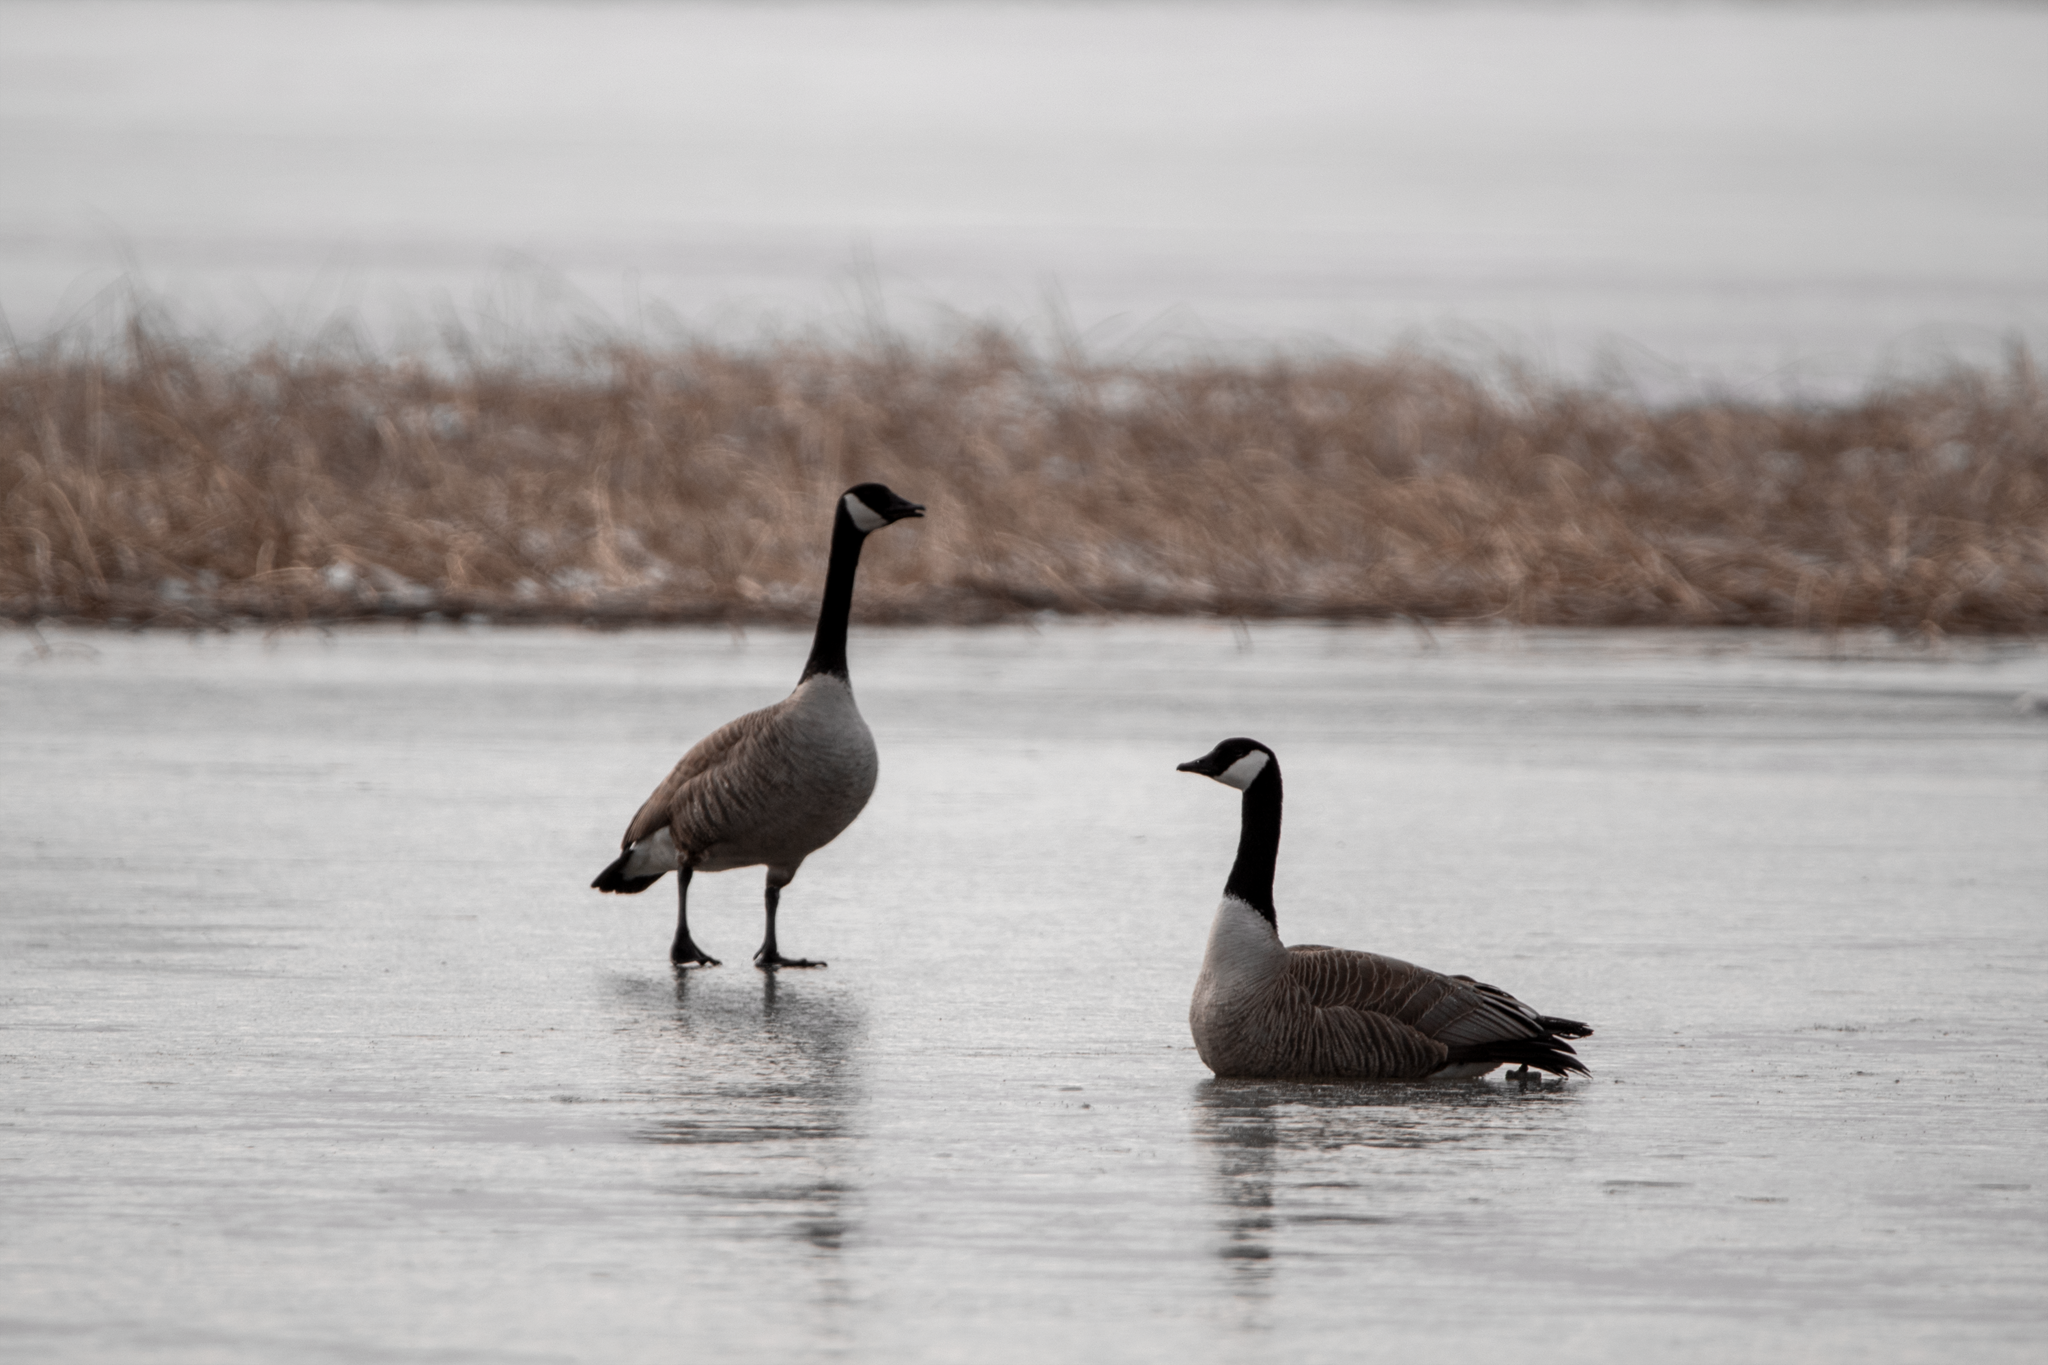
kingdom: Animalia
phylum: Chordata
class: Aves
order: Anseriformes
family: Anatidae
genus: Branta
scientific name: Branta canadensis
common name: Canada goose
